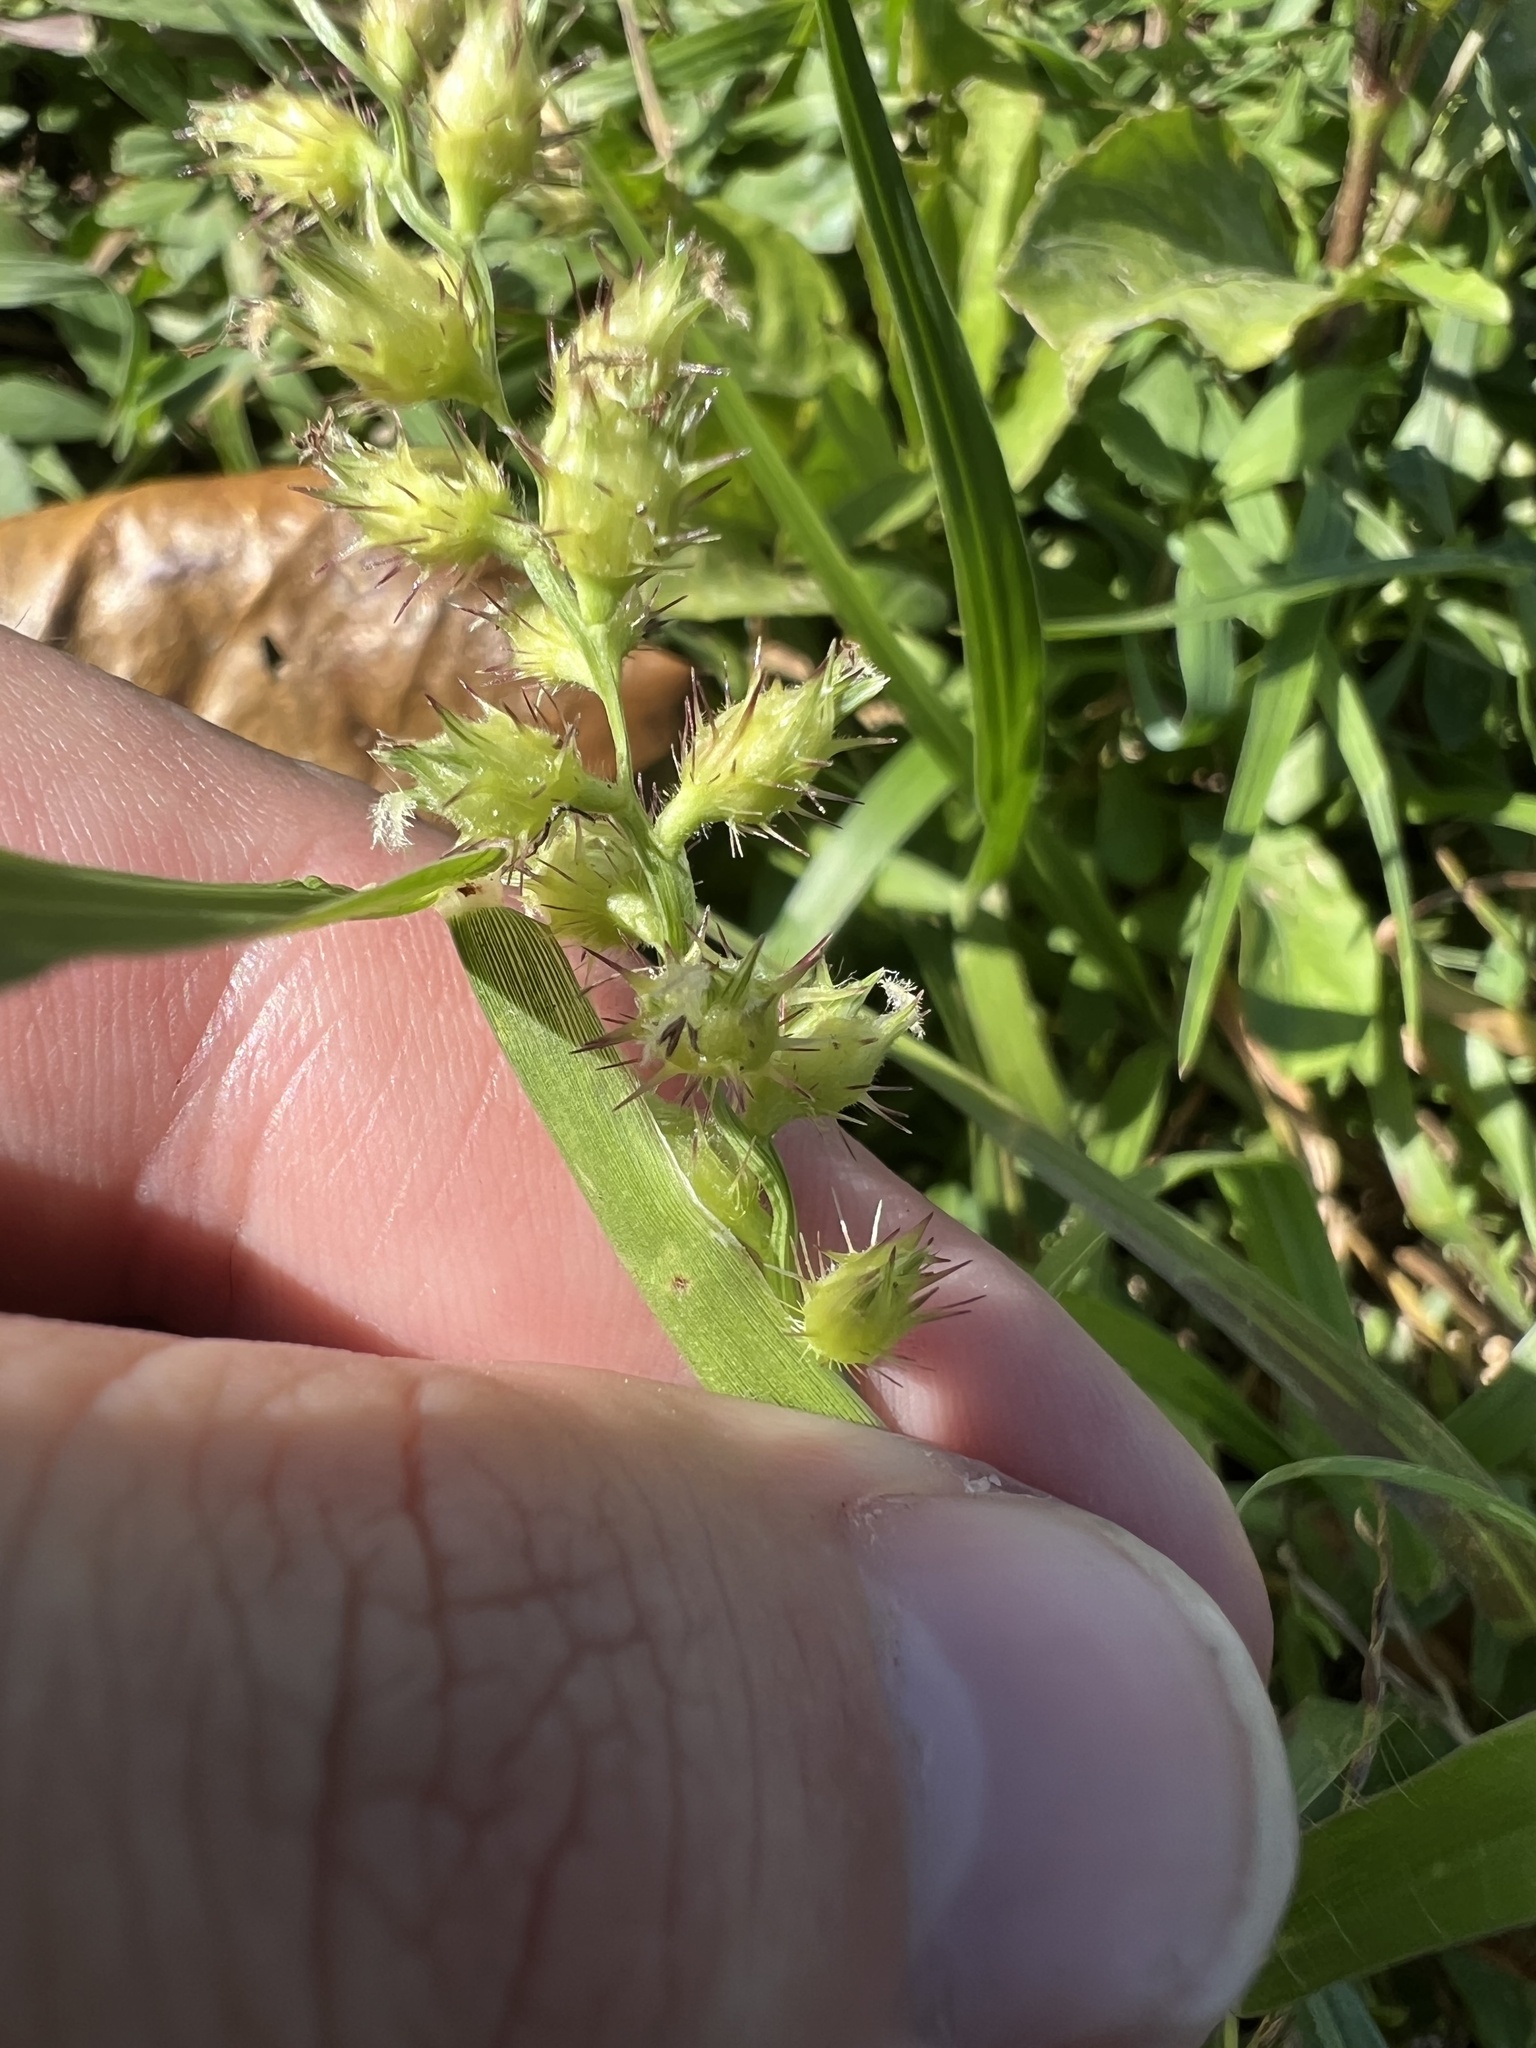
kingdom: Plantae
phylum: Tracheophyta
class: Liliopsida
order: Poales
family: Poaceae
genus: Cenchrus
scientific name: Cenchrus brownii
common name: Slim-bristle sandbur
